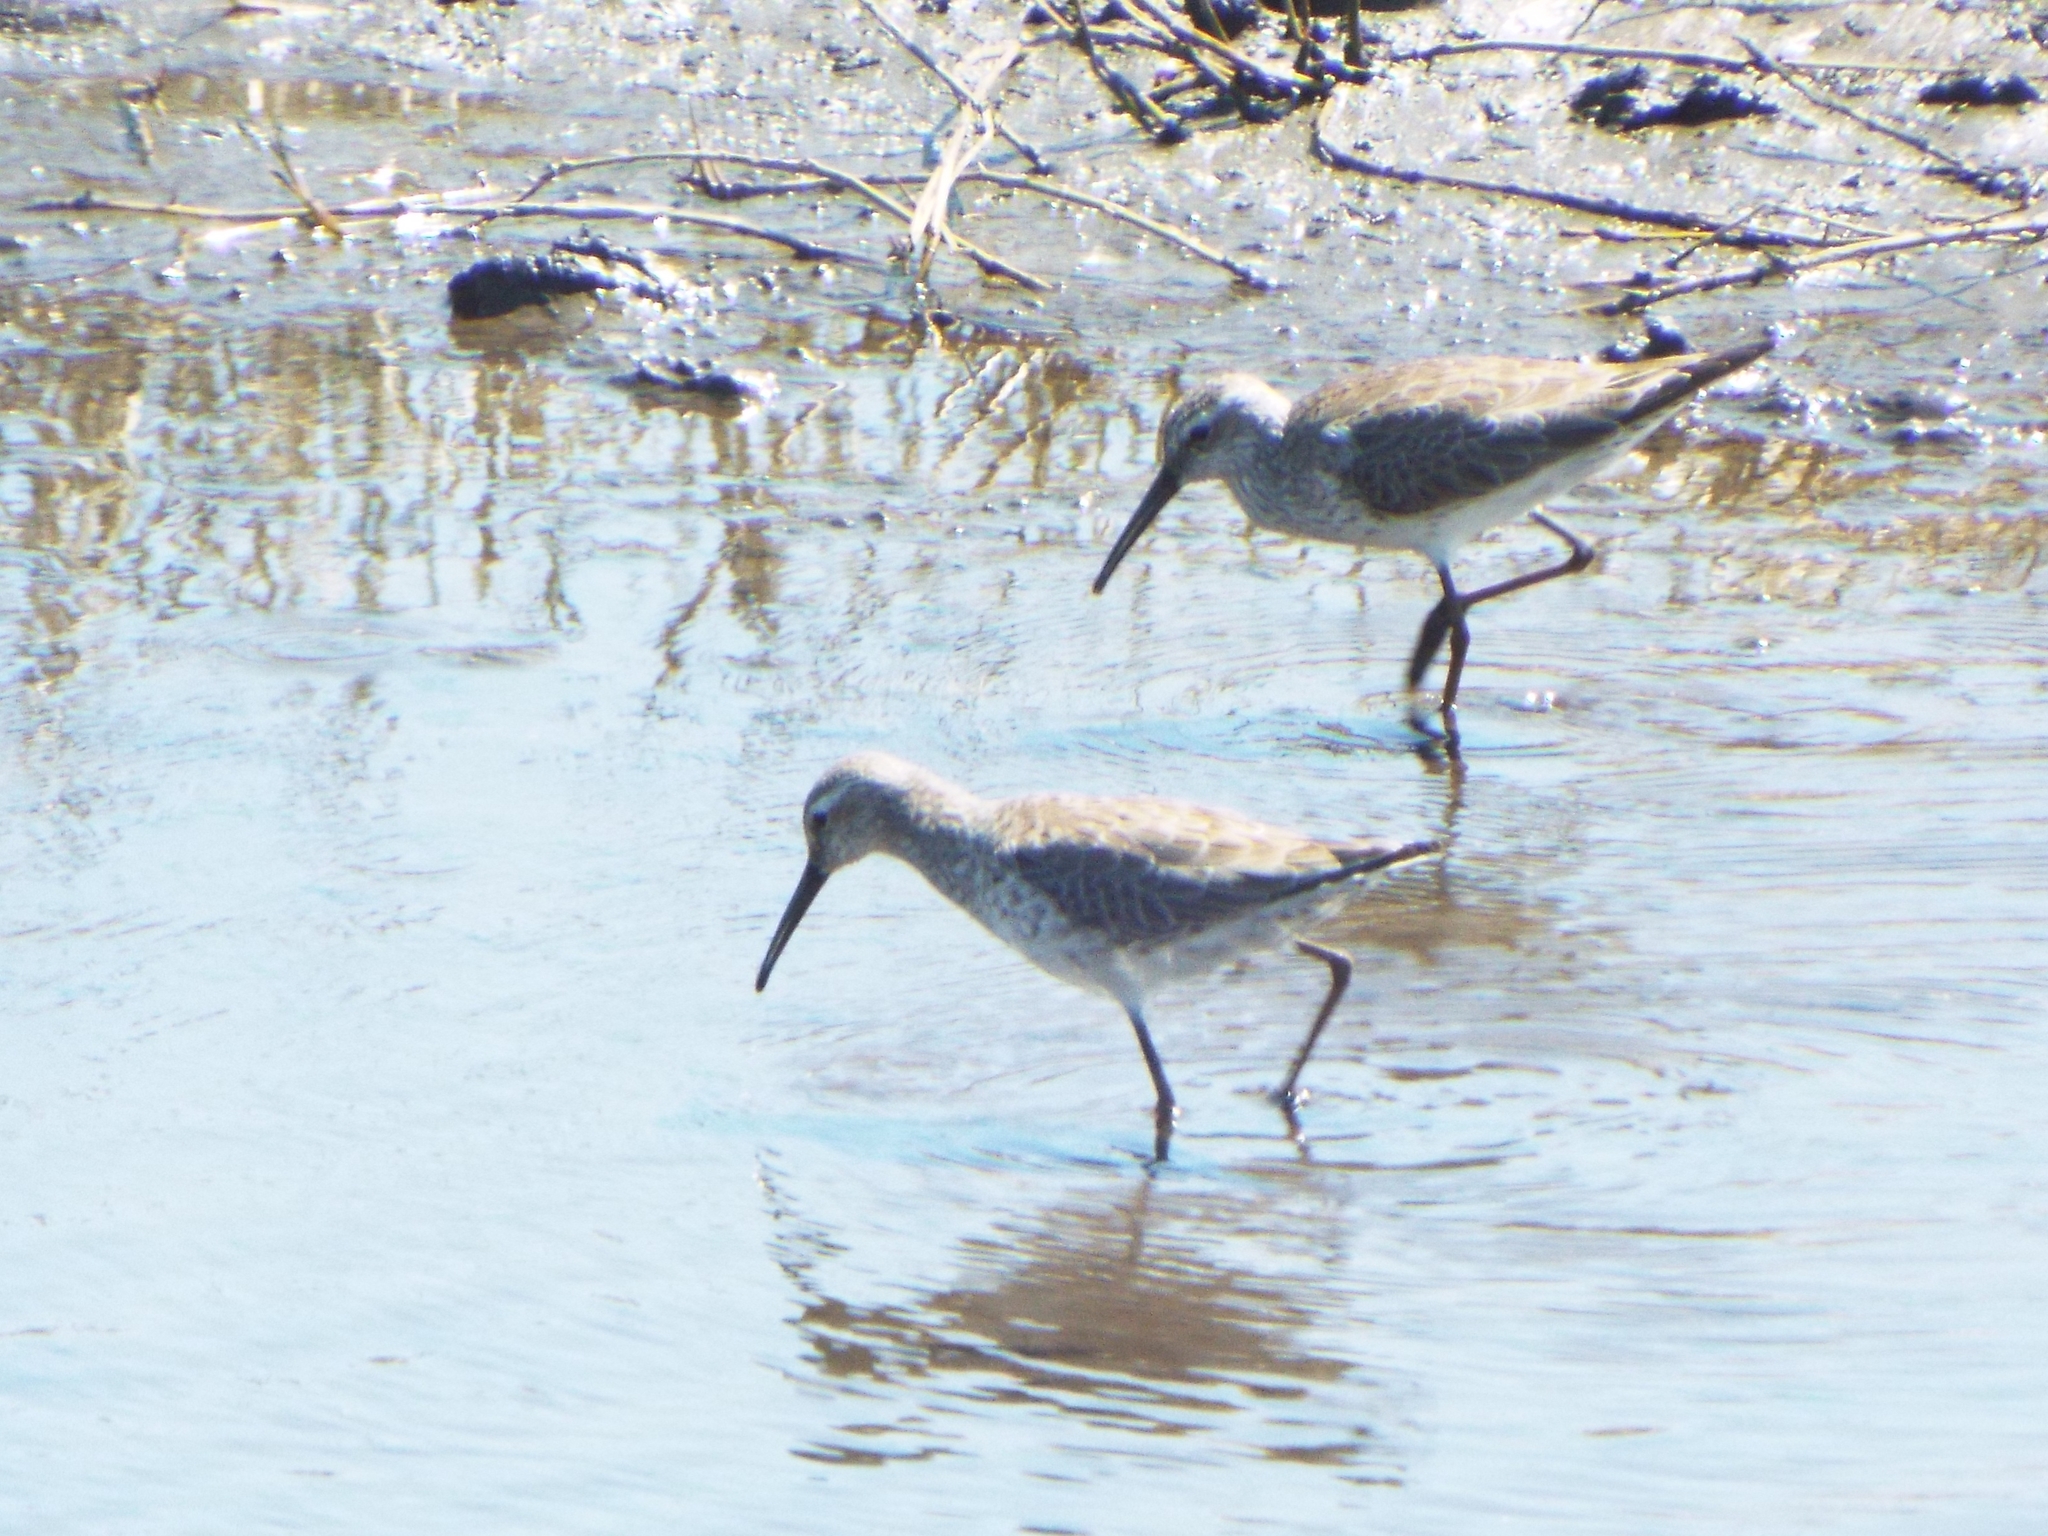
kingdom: Animalia
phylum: Chordata
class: Aves
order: Charadriiformes
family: Scolopacidae
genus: Calidris
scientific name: Calidris himantopus
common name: Stilt sandpiper
